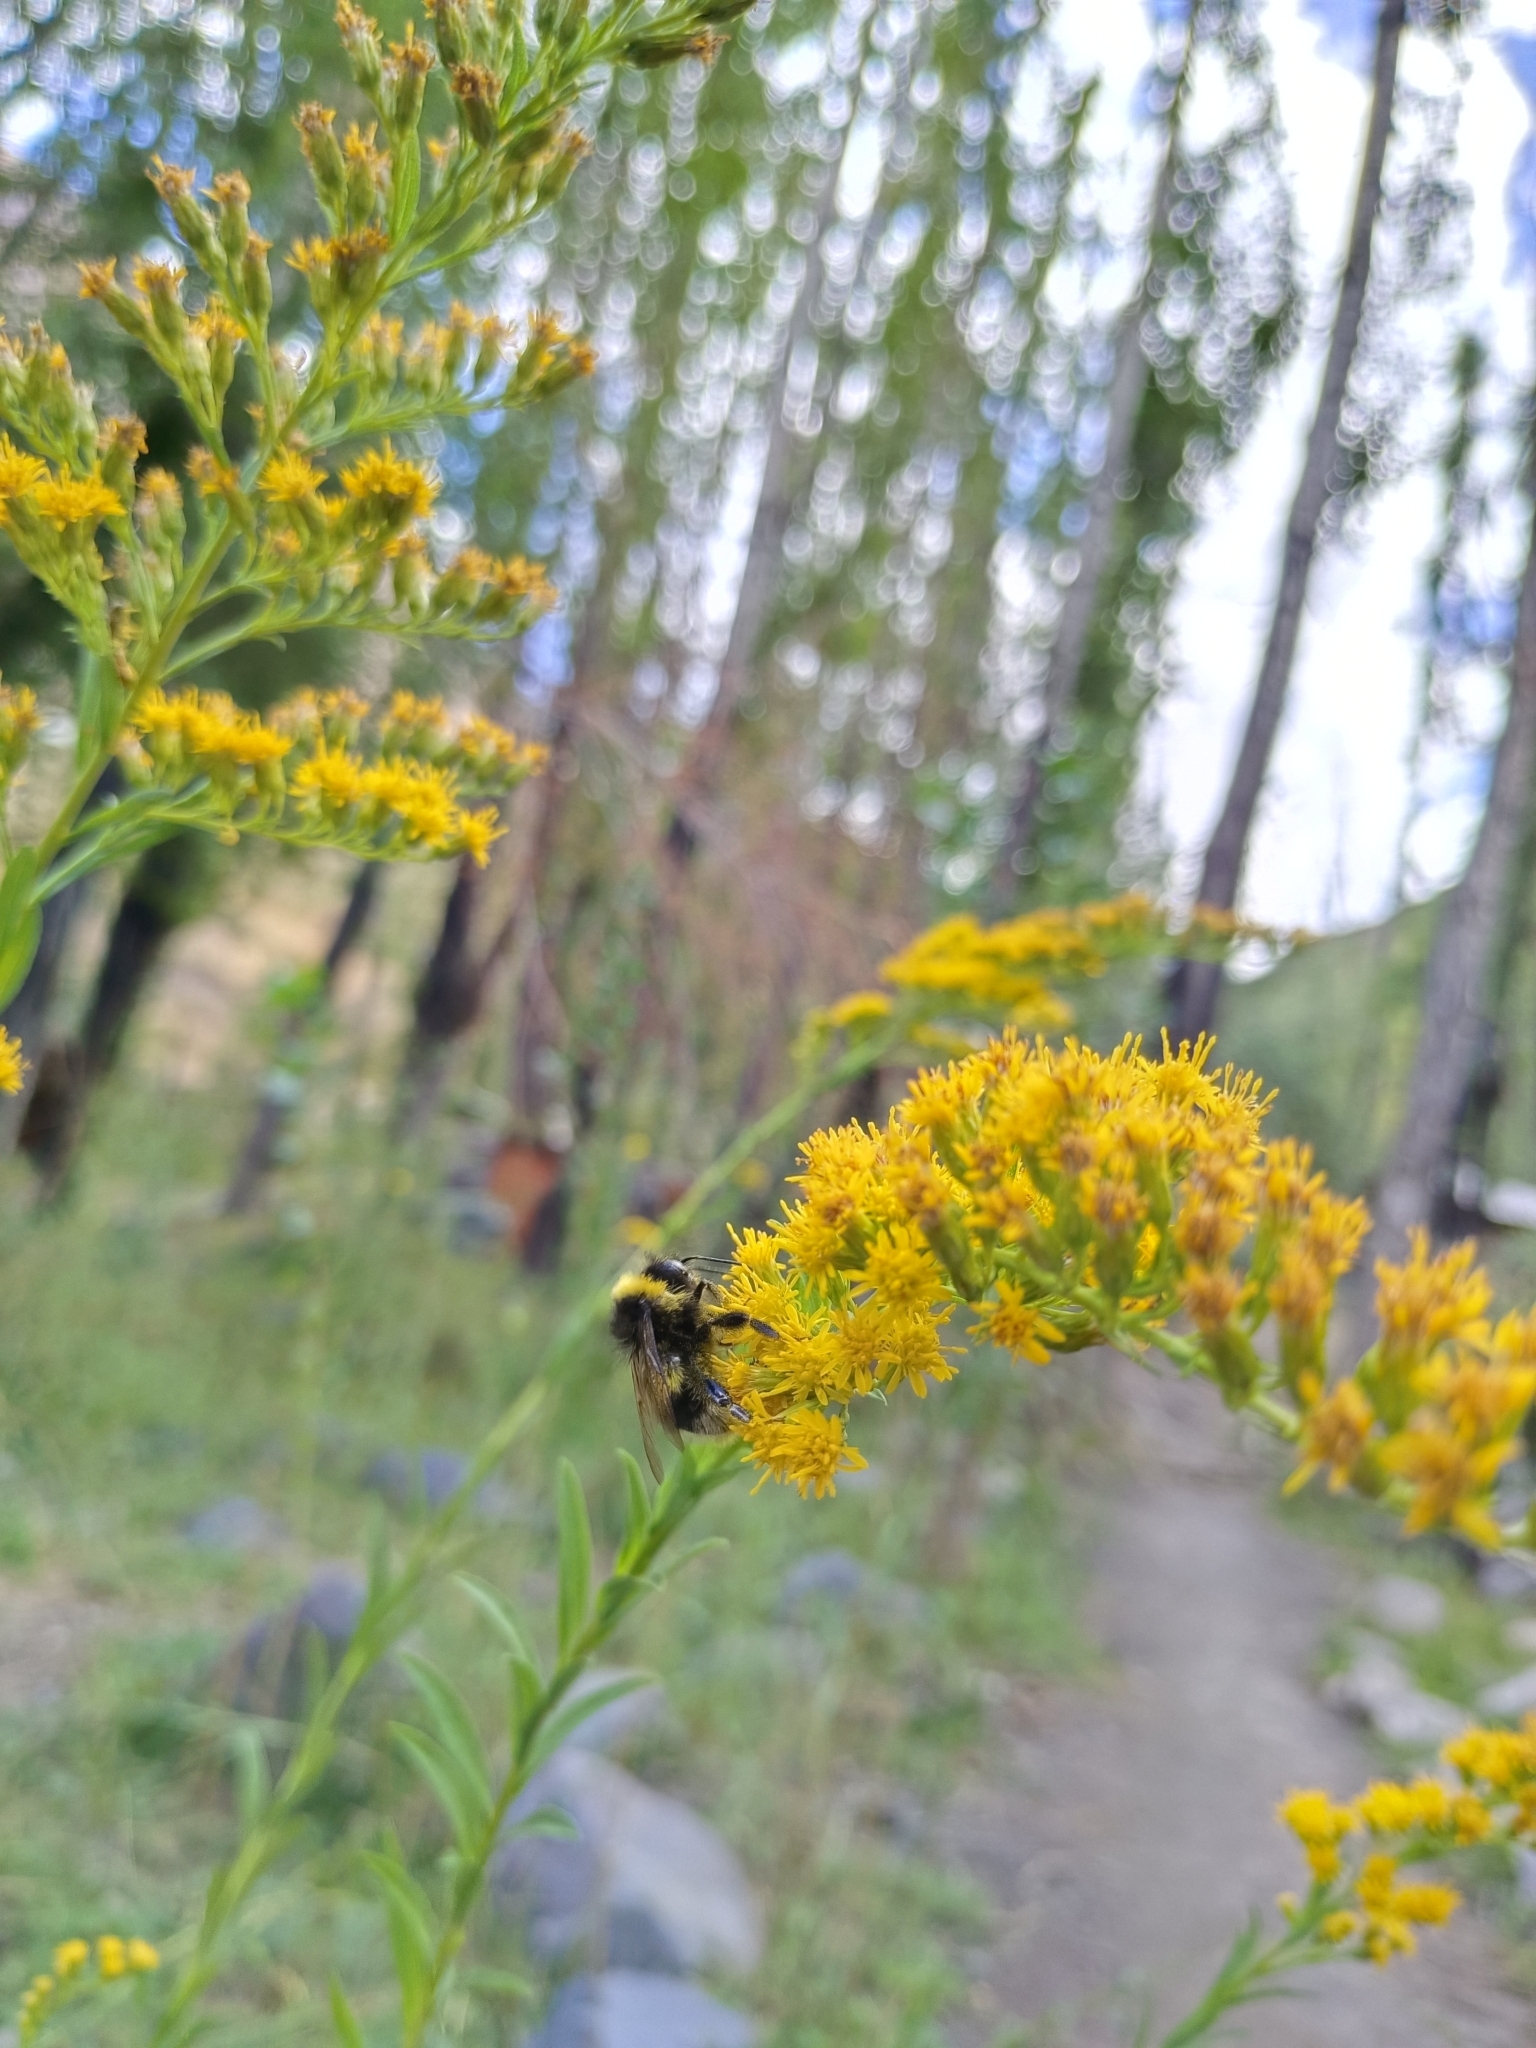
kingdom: Animalia
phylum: Arthropoda
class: Insecta
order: Hymenoptera
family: Apidae
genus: Bombus
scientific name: Bombus terrestris
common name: Buff-tailed bumblebee
